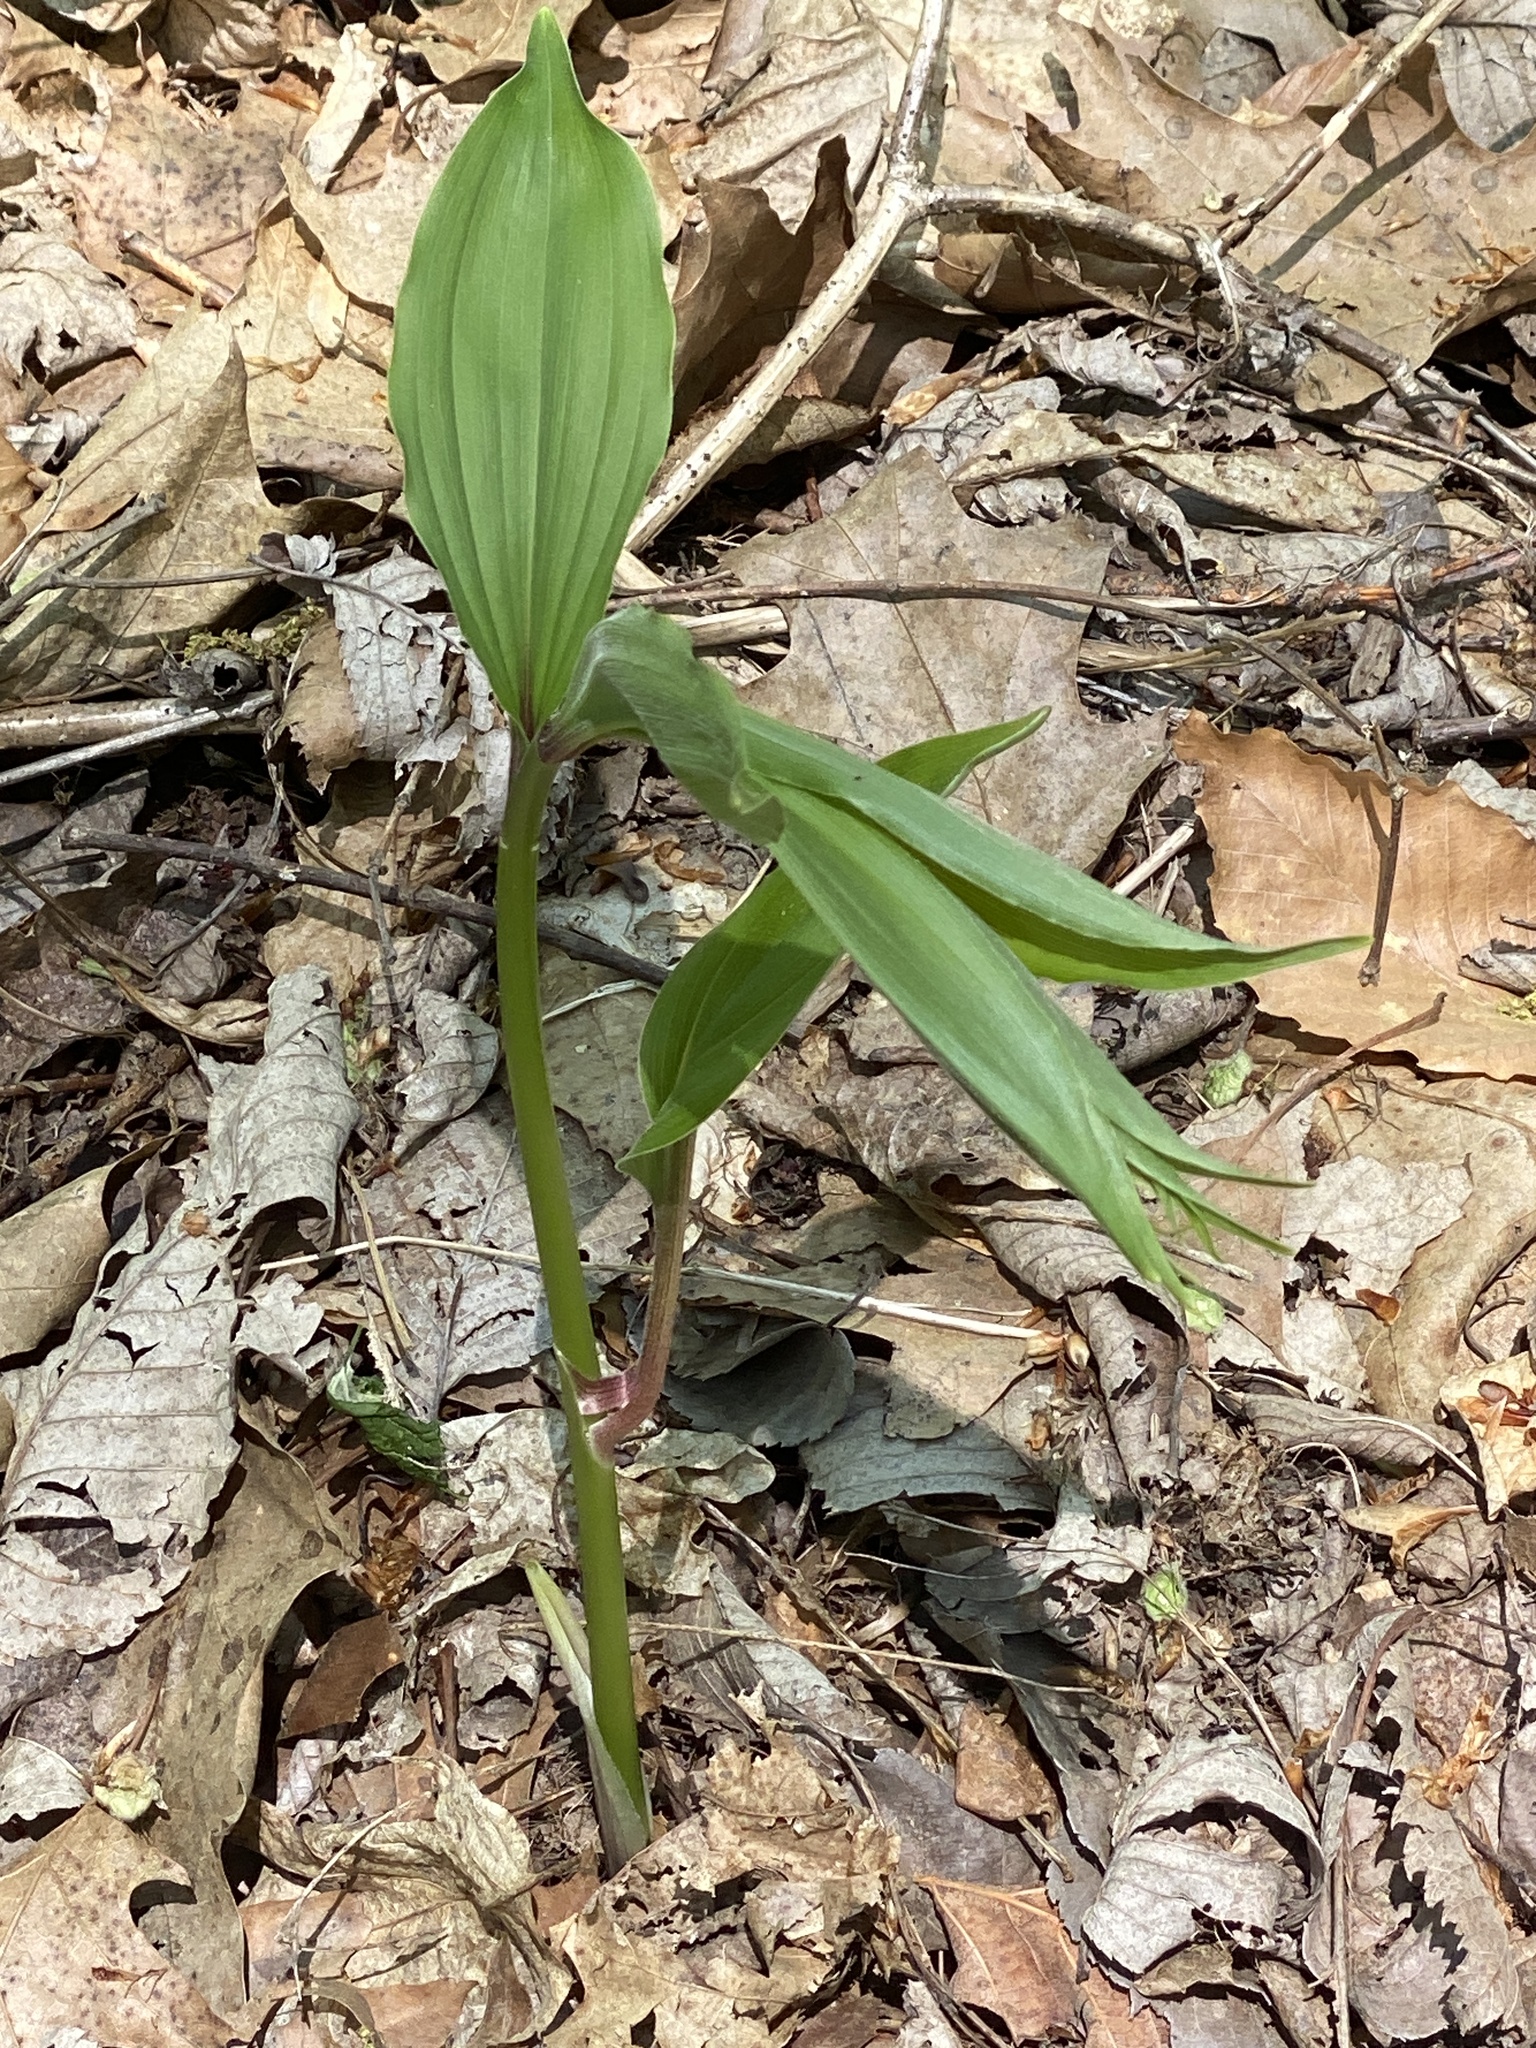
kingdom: Plantae
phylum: Tracheophyta
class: Liliopsida
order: Asparagales
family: Asparagaceae
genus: Maianthemum
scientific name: Maianthemum racemosum
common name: False spikenard
